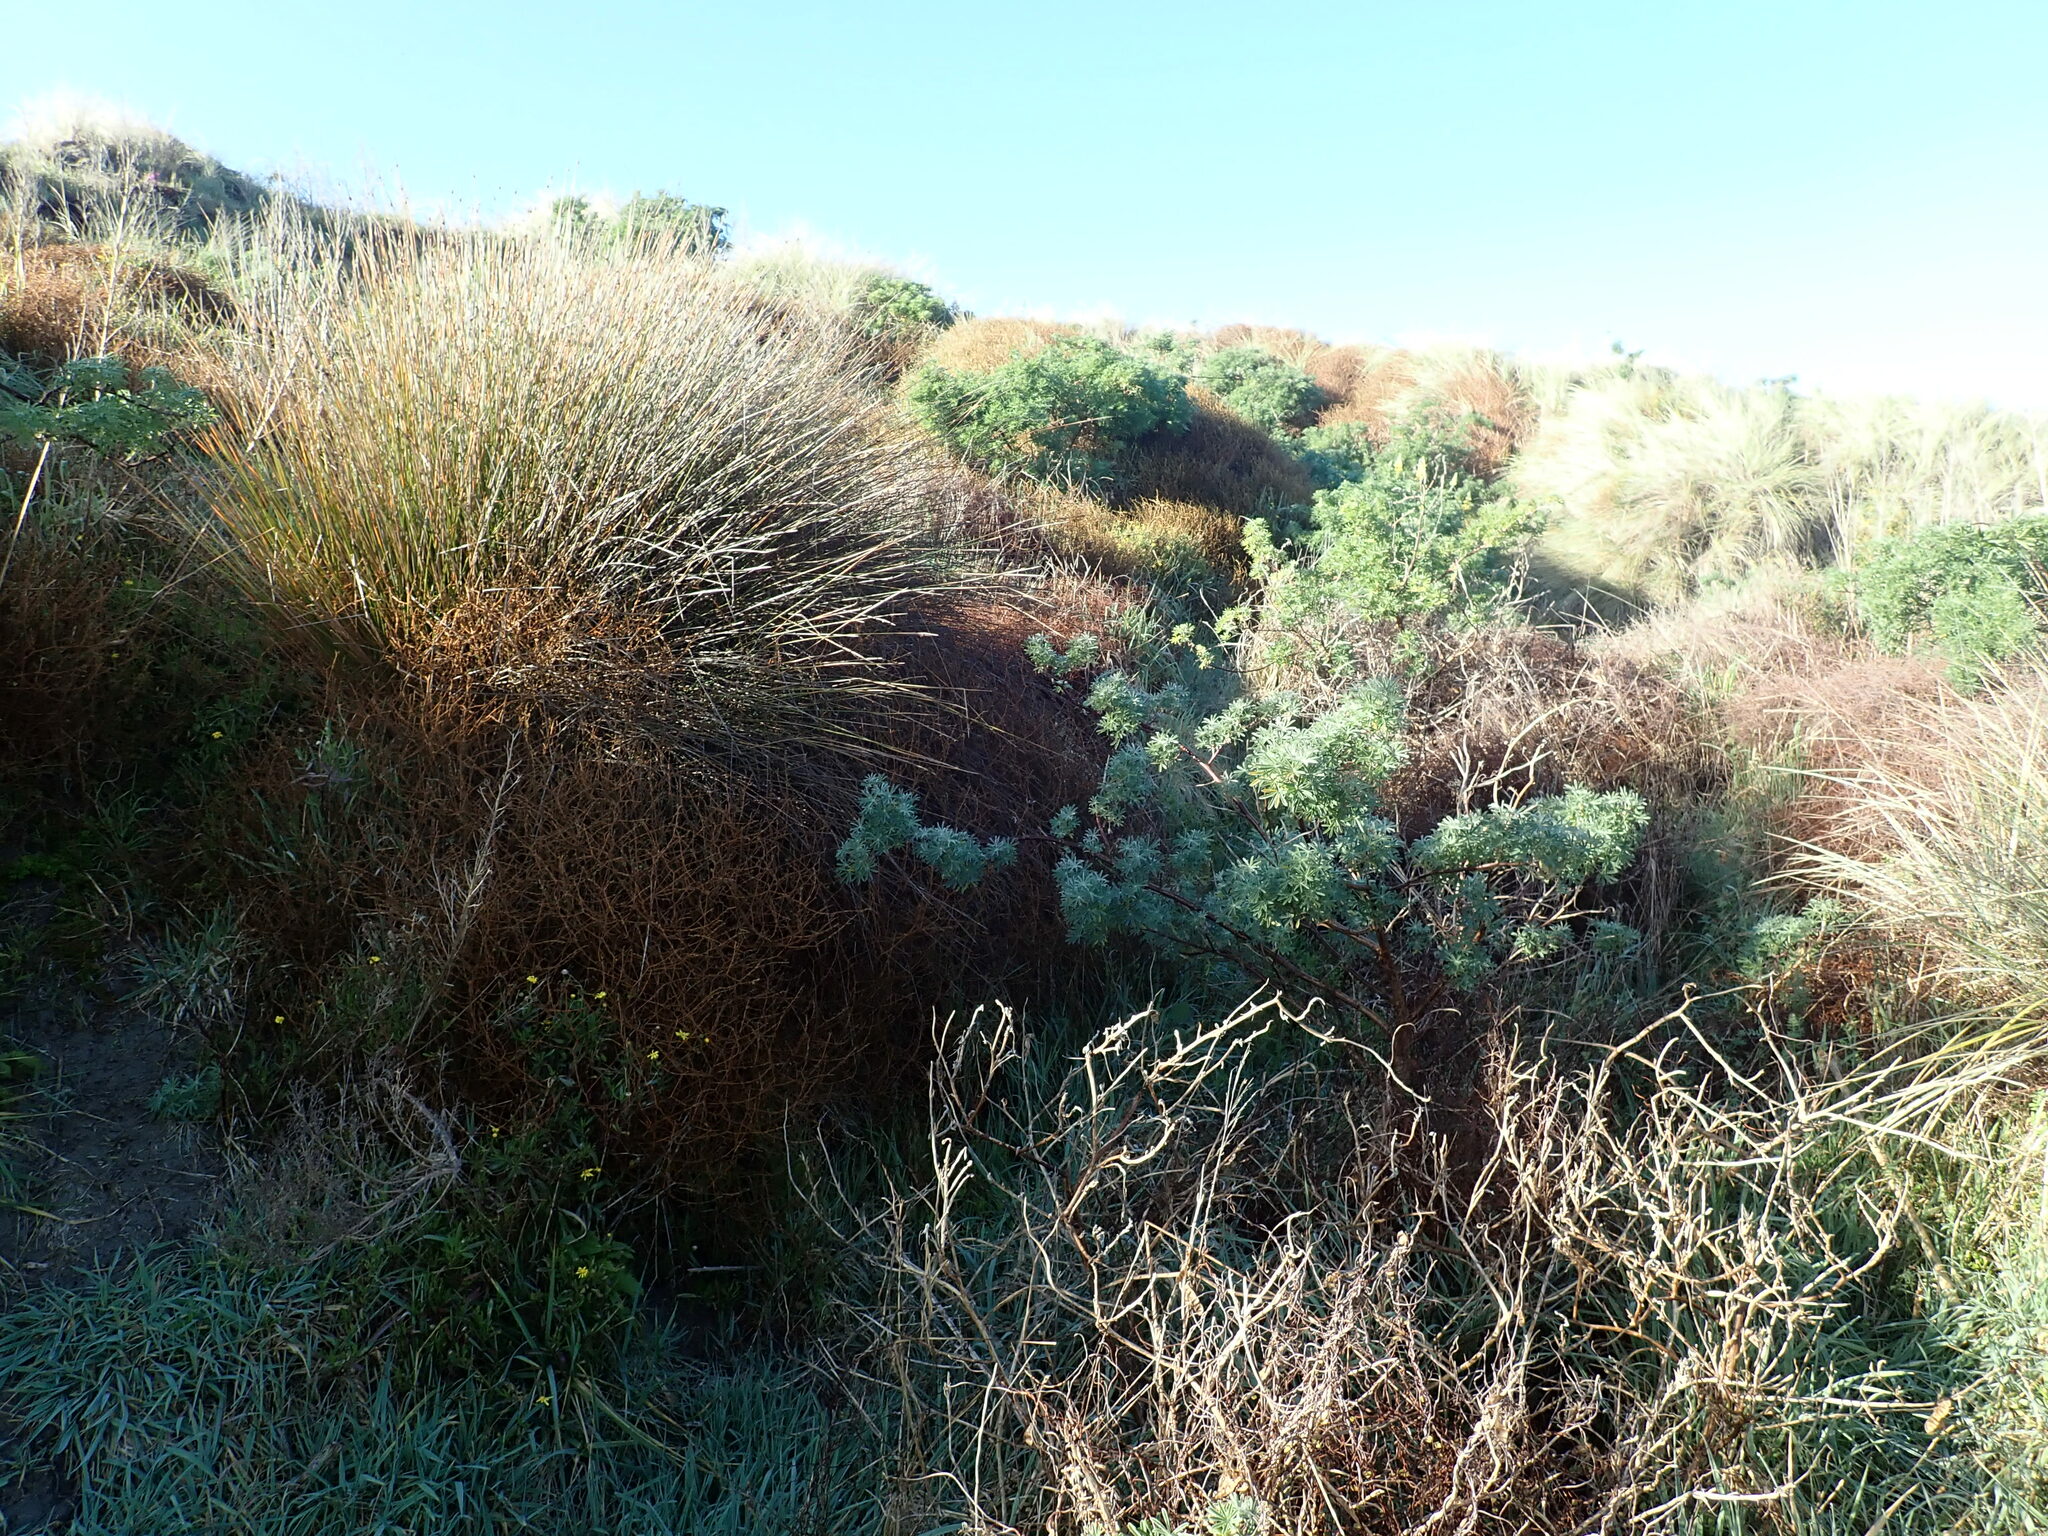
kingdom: Plantae
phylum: Tracheophyta
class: Magnoliopsida
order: Gentianales
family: Rubiaceae
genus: Coprosma
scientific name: Coprosma acerosa
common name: Sand coprosma
